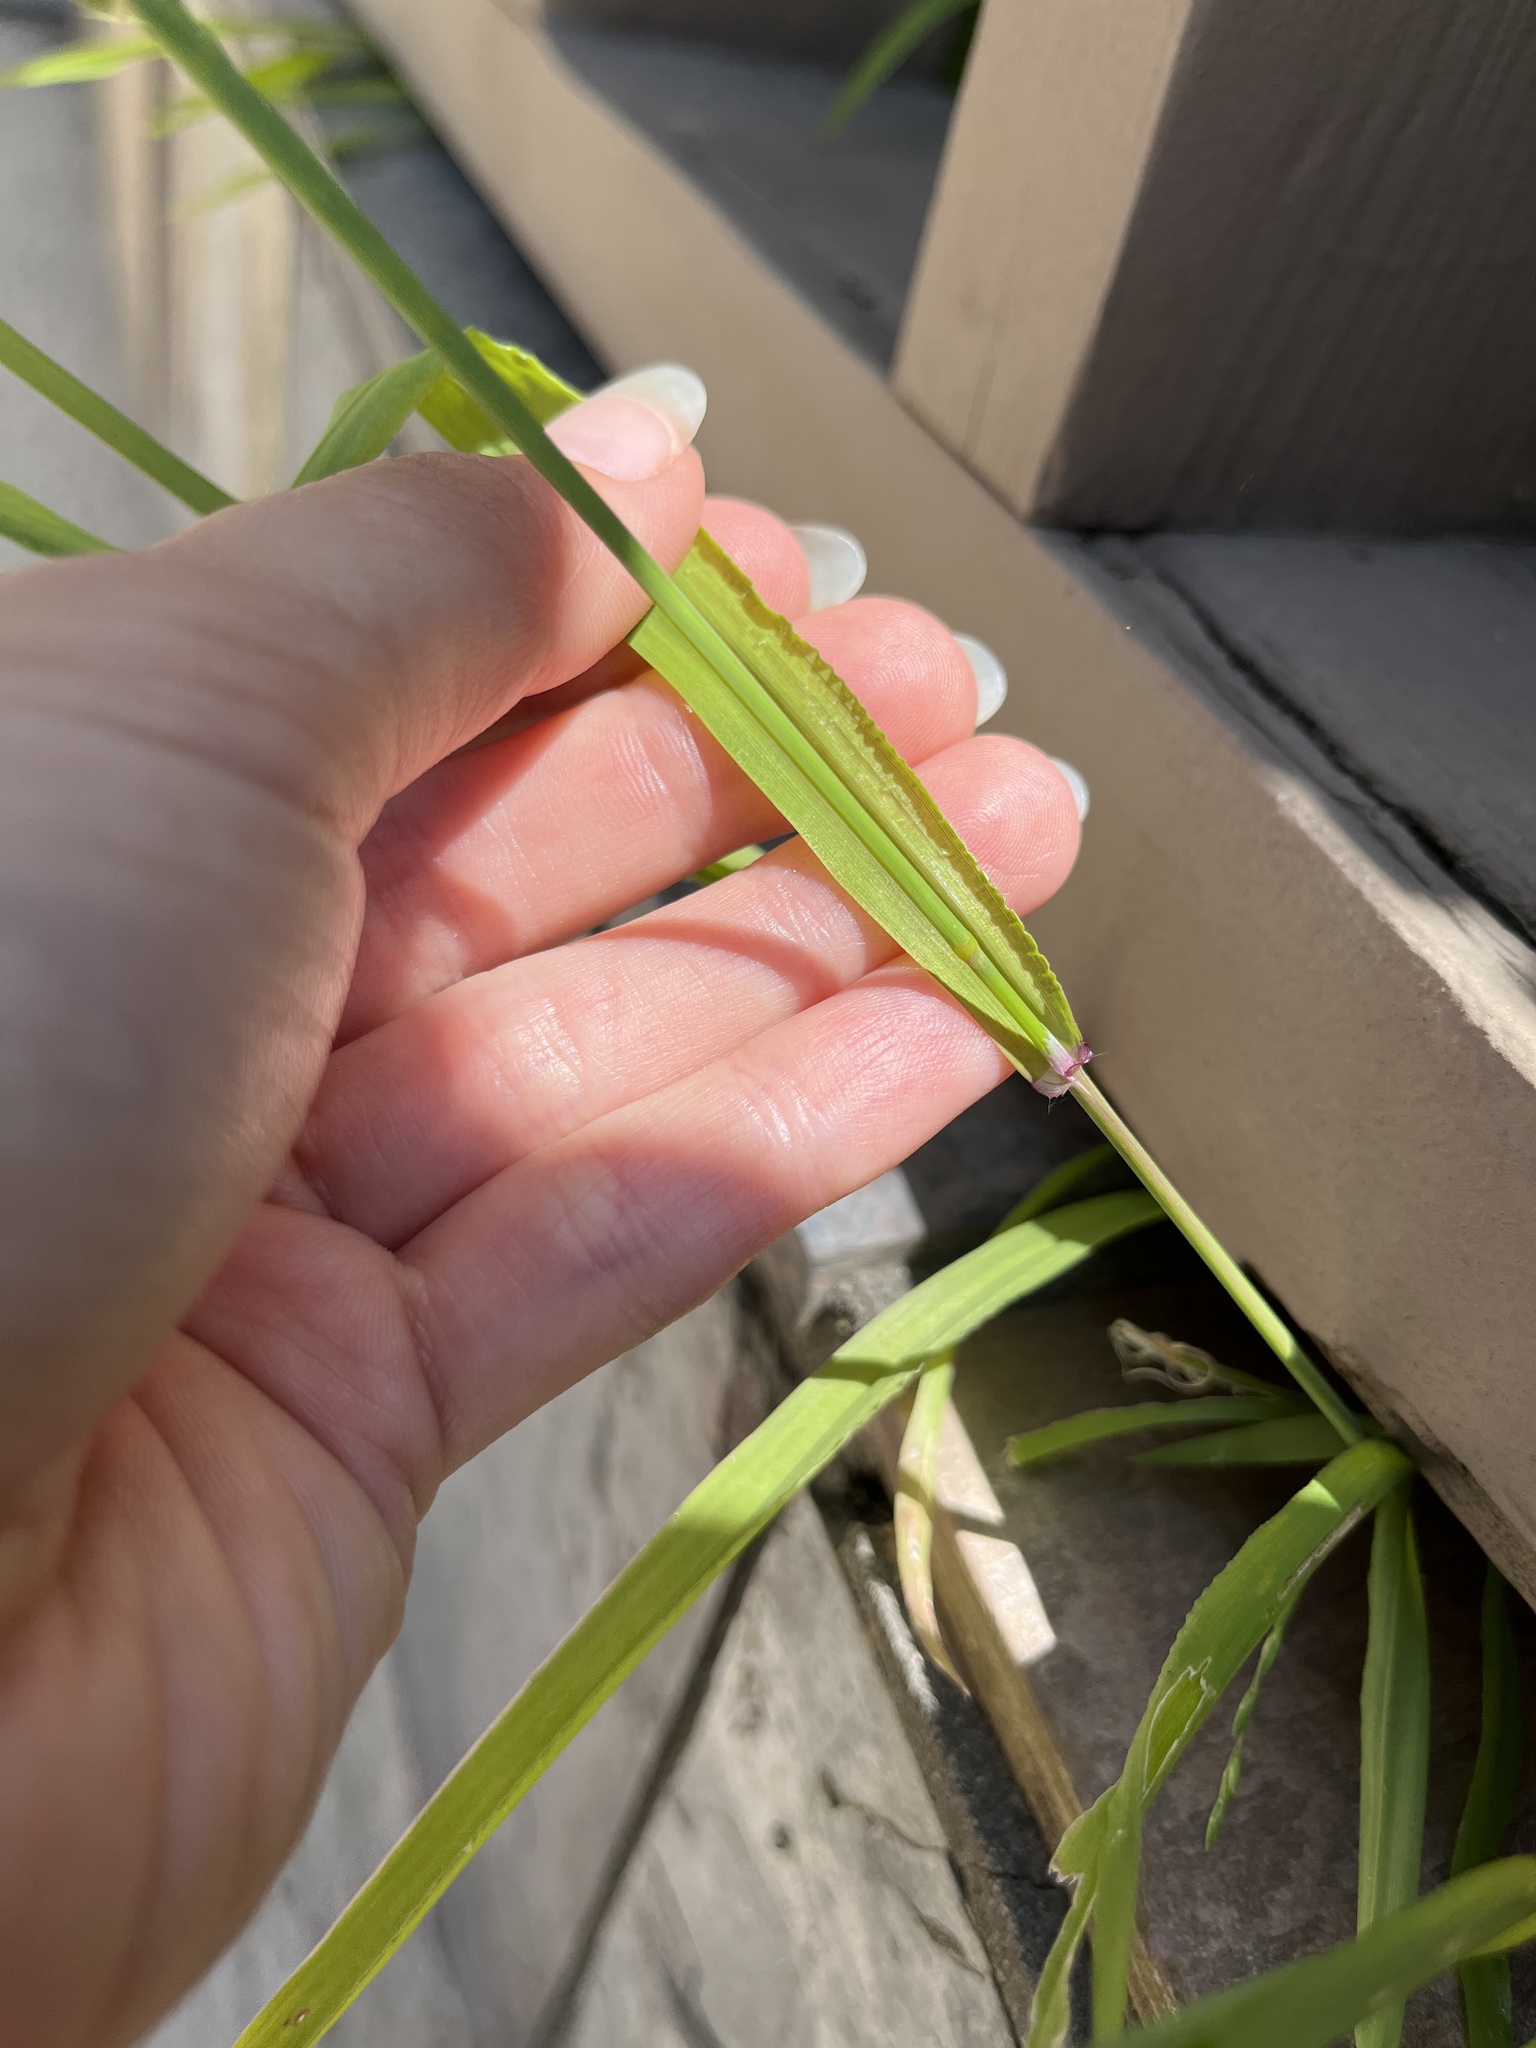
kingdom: Plantae
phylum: Tracheophyta
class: Liliopsida
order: Poales
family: Poaceae
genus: Ehrharta
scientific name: Ehrharta erecta
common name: Panic veldtgrass
